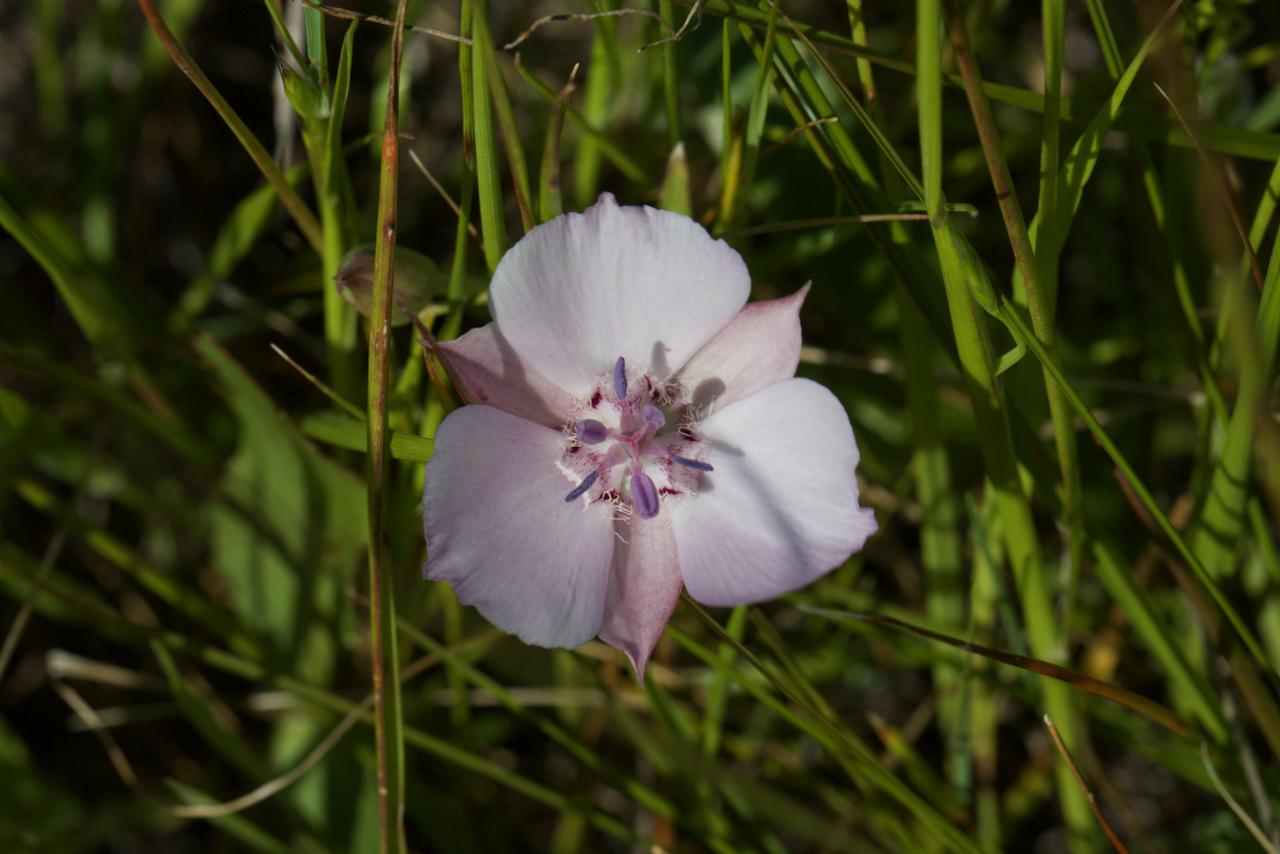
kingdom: Plantae
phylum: Tracheophyta
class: Liliopsida
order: Liliales
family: Liliaceae
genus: Calochortus
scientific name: Calochortus umbellatus
